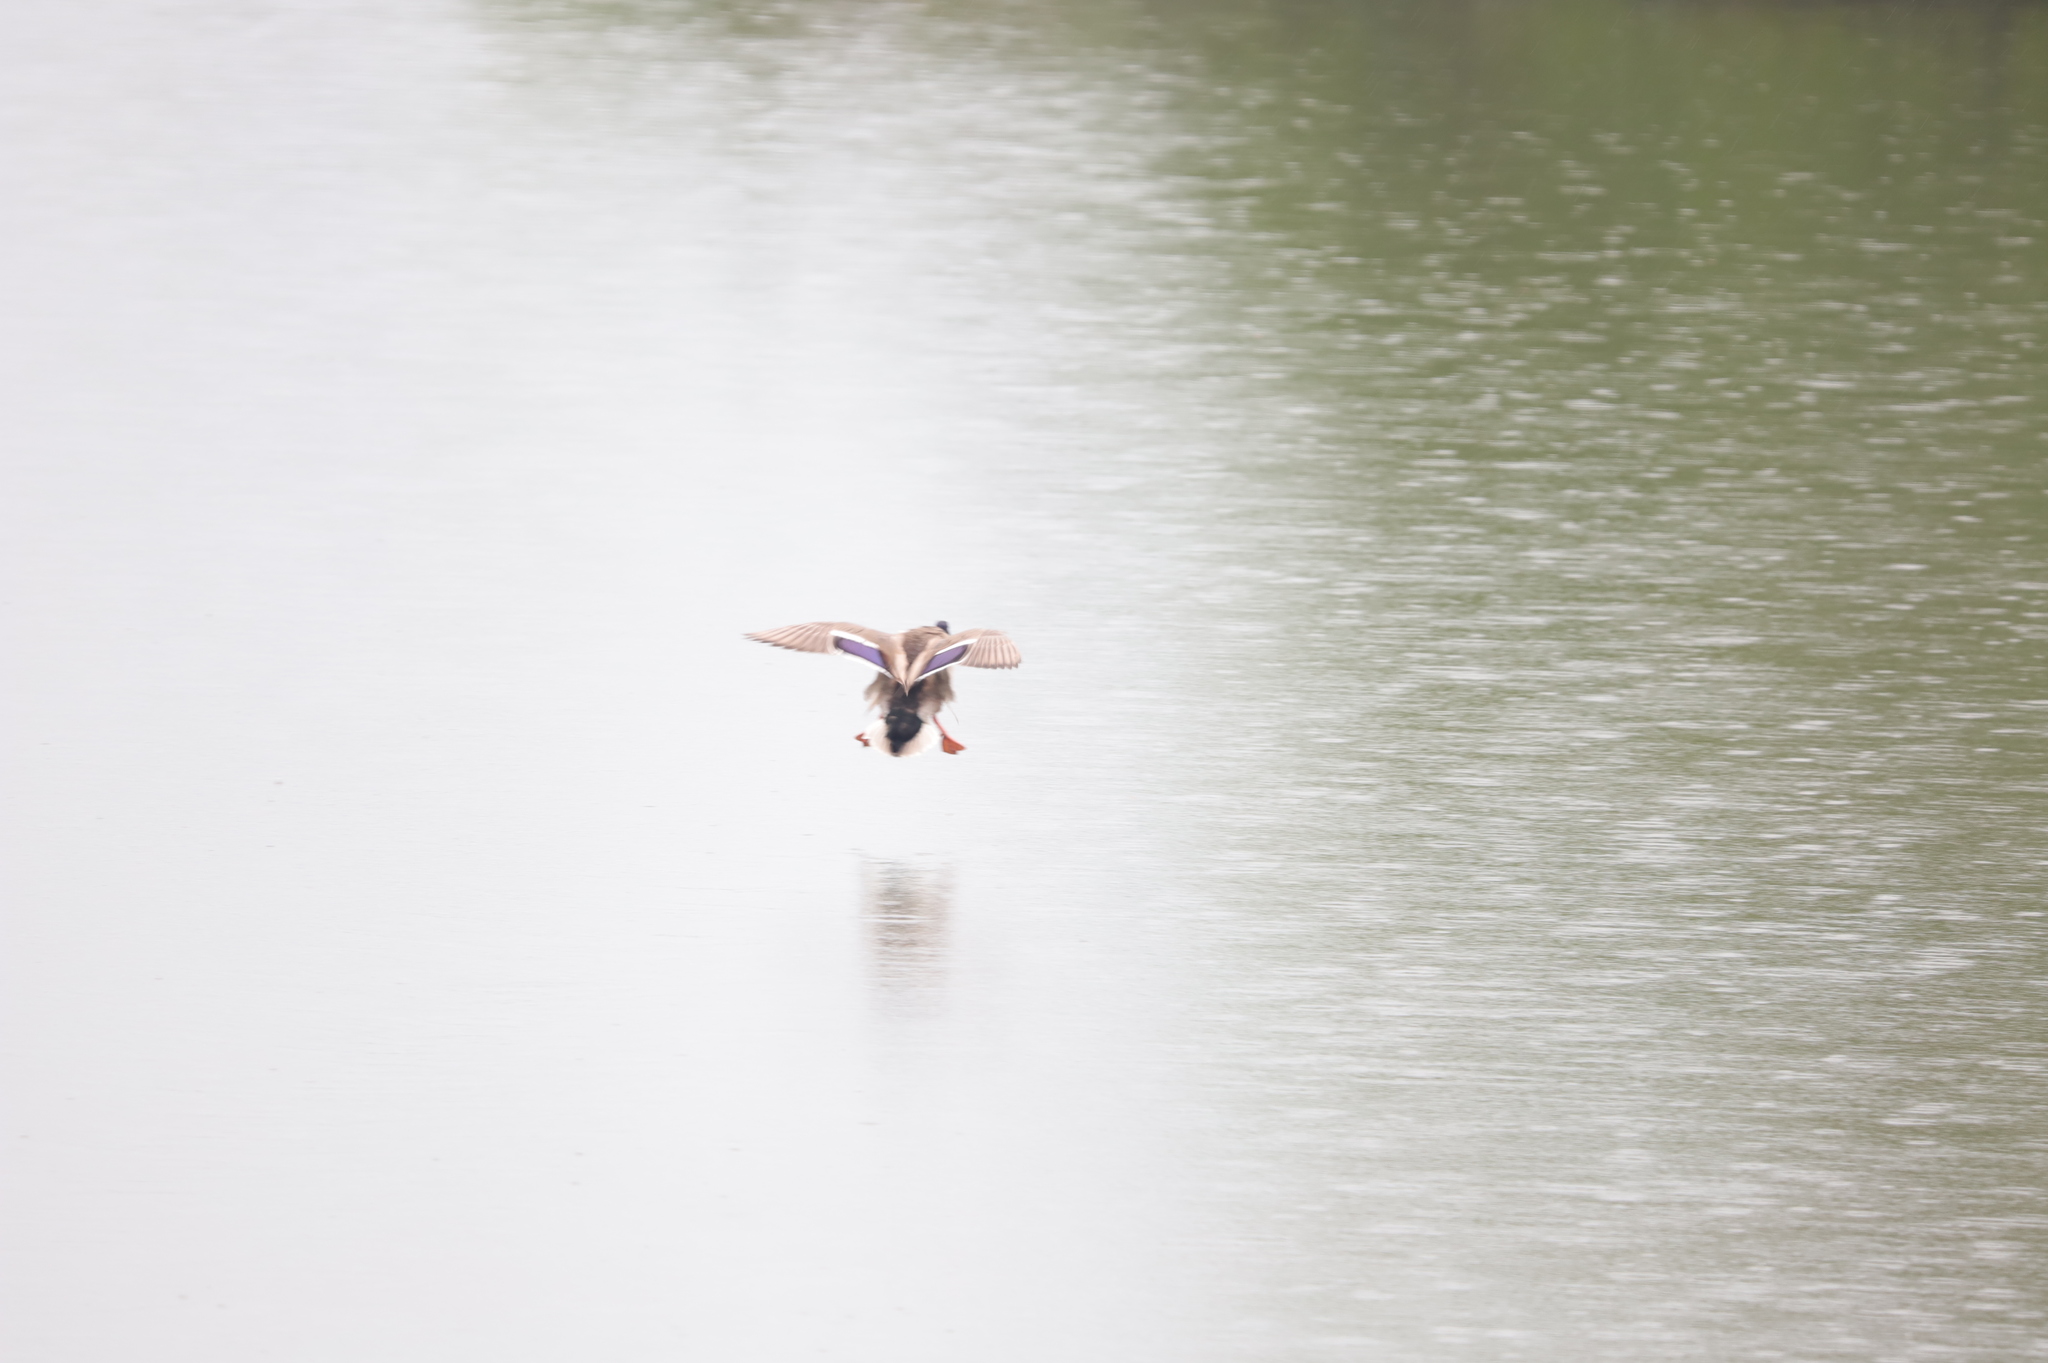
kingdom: Animalia
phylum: Chordata
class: Aves
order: Anseriformes
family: Anatidae
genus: Anas
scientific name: Anas platyrhynchos
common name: Mallard
